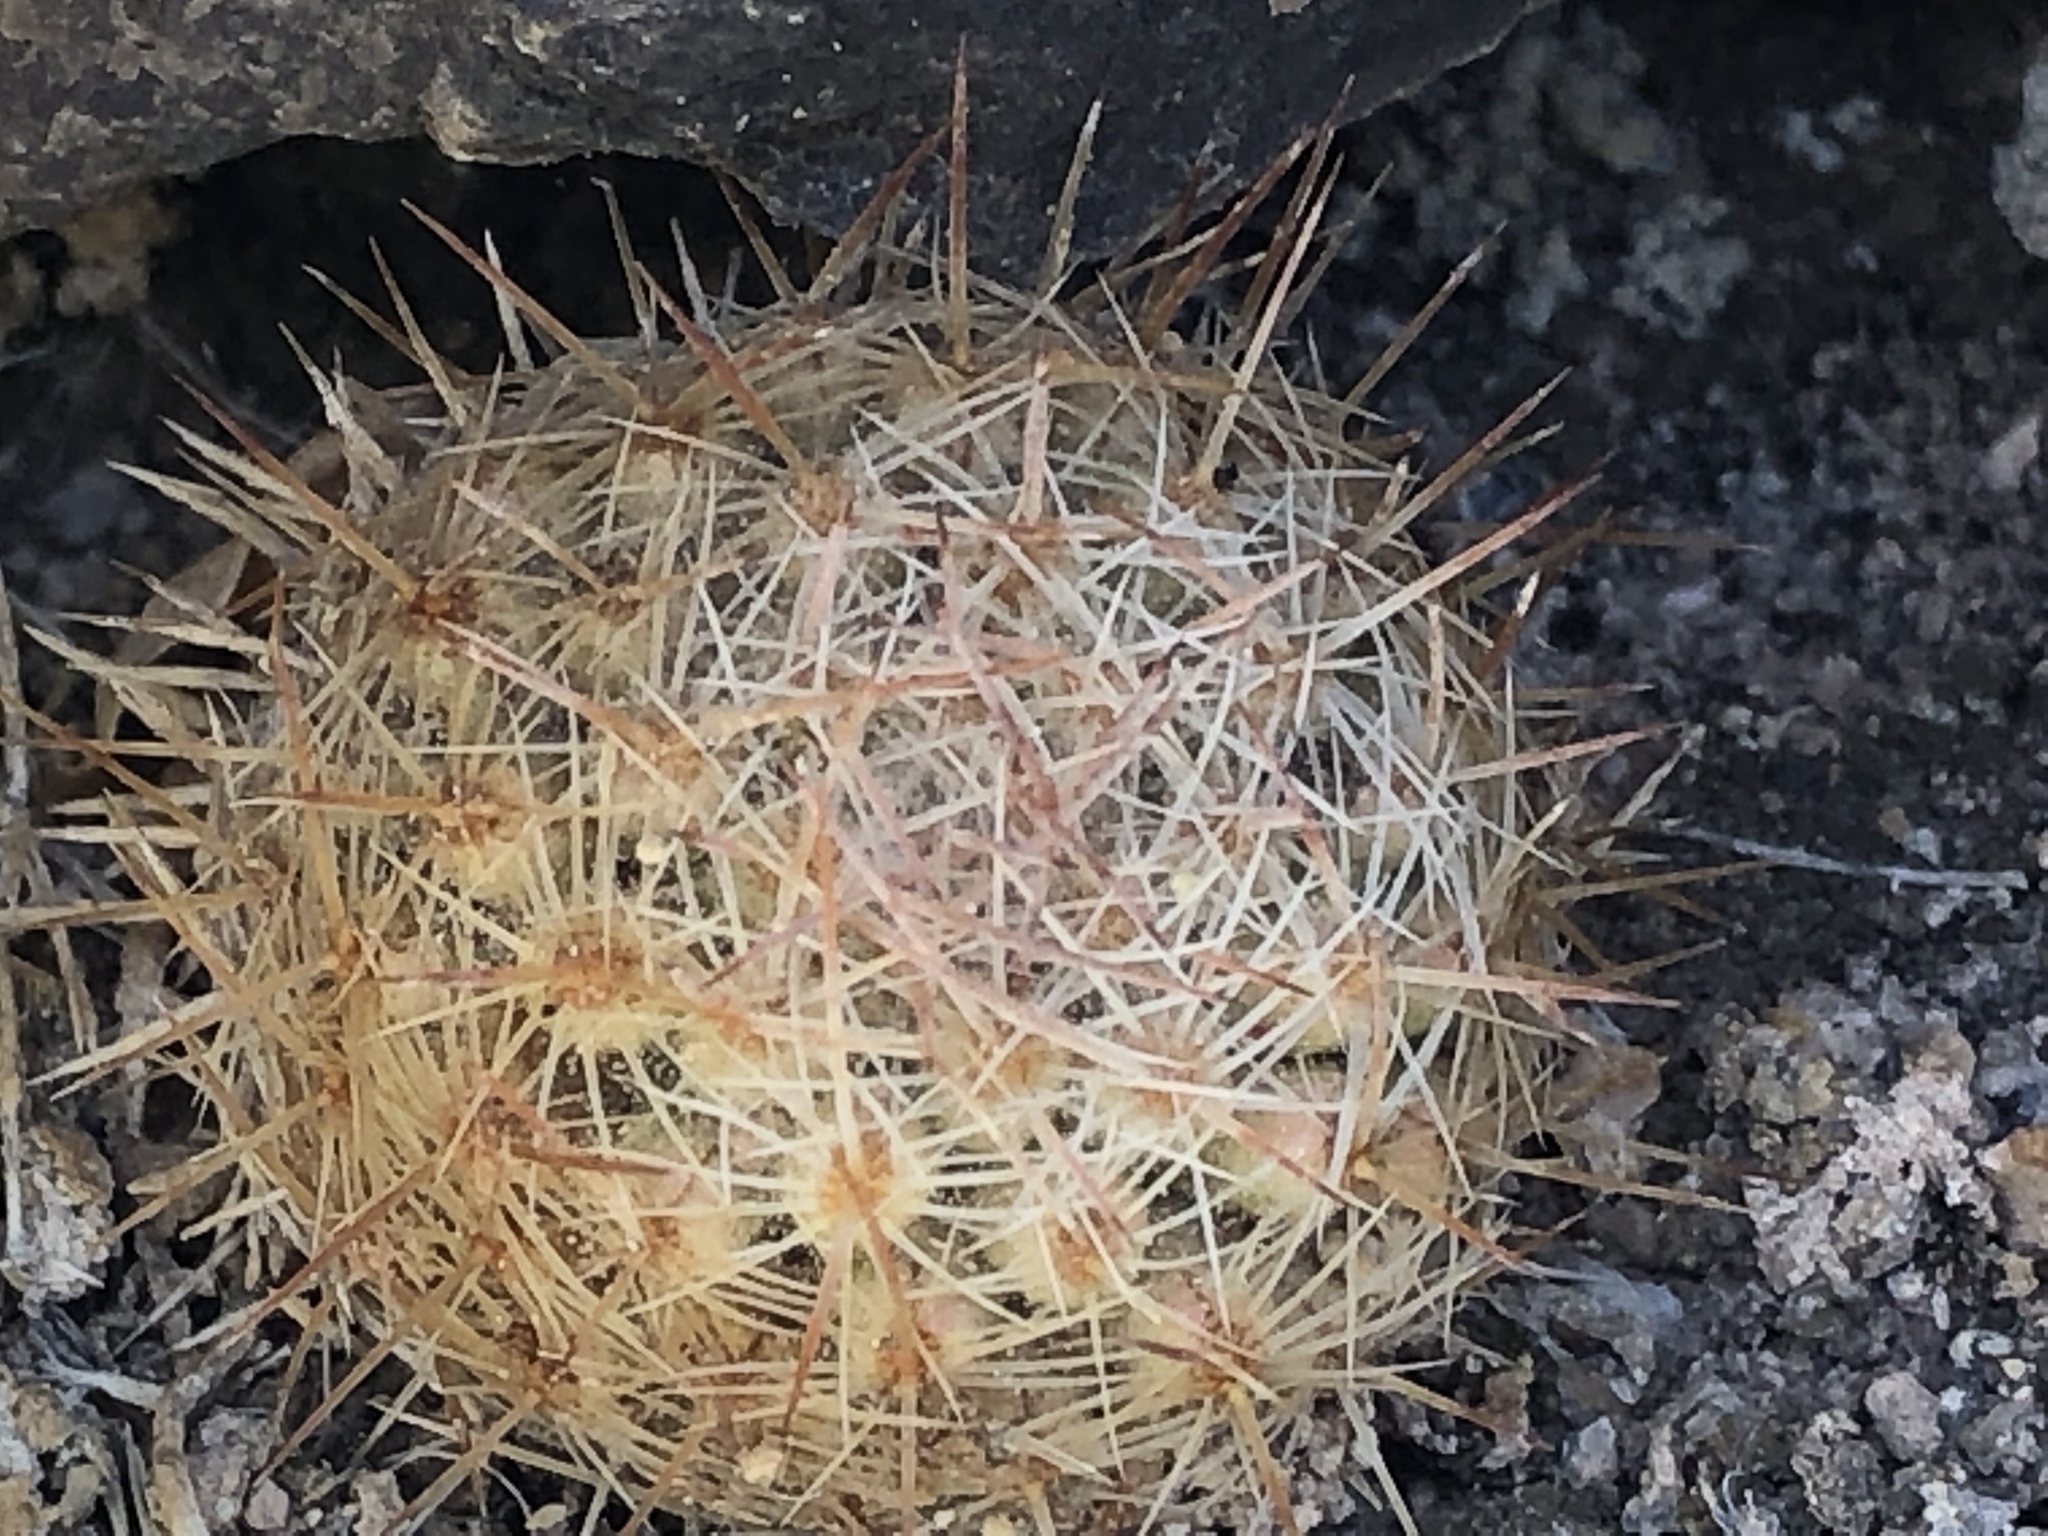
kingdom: Plantae
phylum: Tracheophyta
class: Magnoliopsida
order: Caryophyllales
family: Cactaceae
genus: Pelecyphora
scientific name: Pelecyphora vivipara
